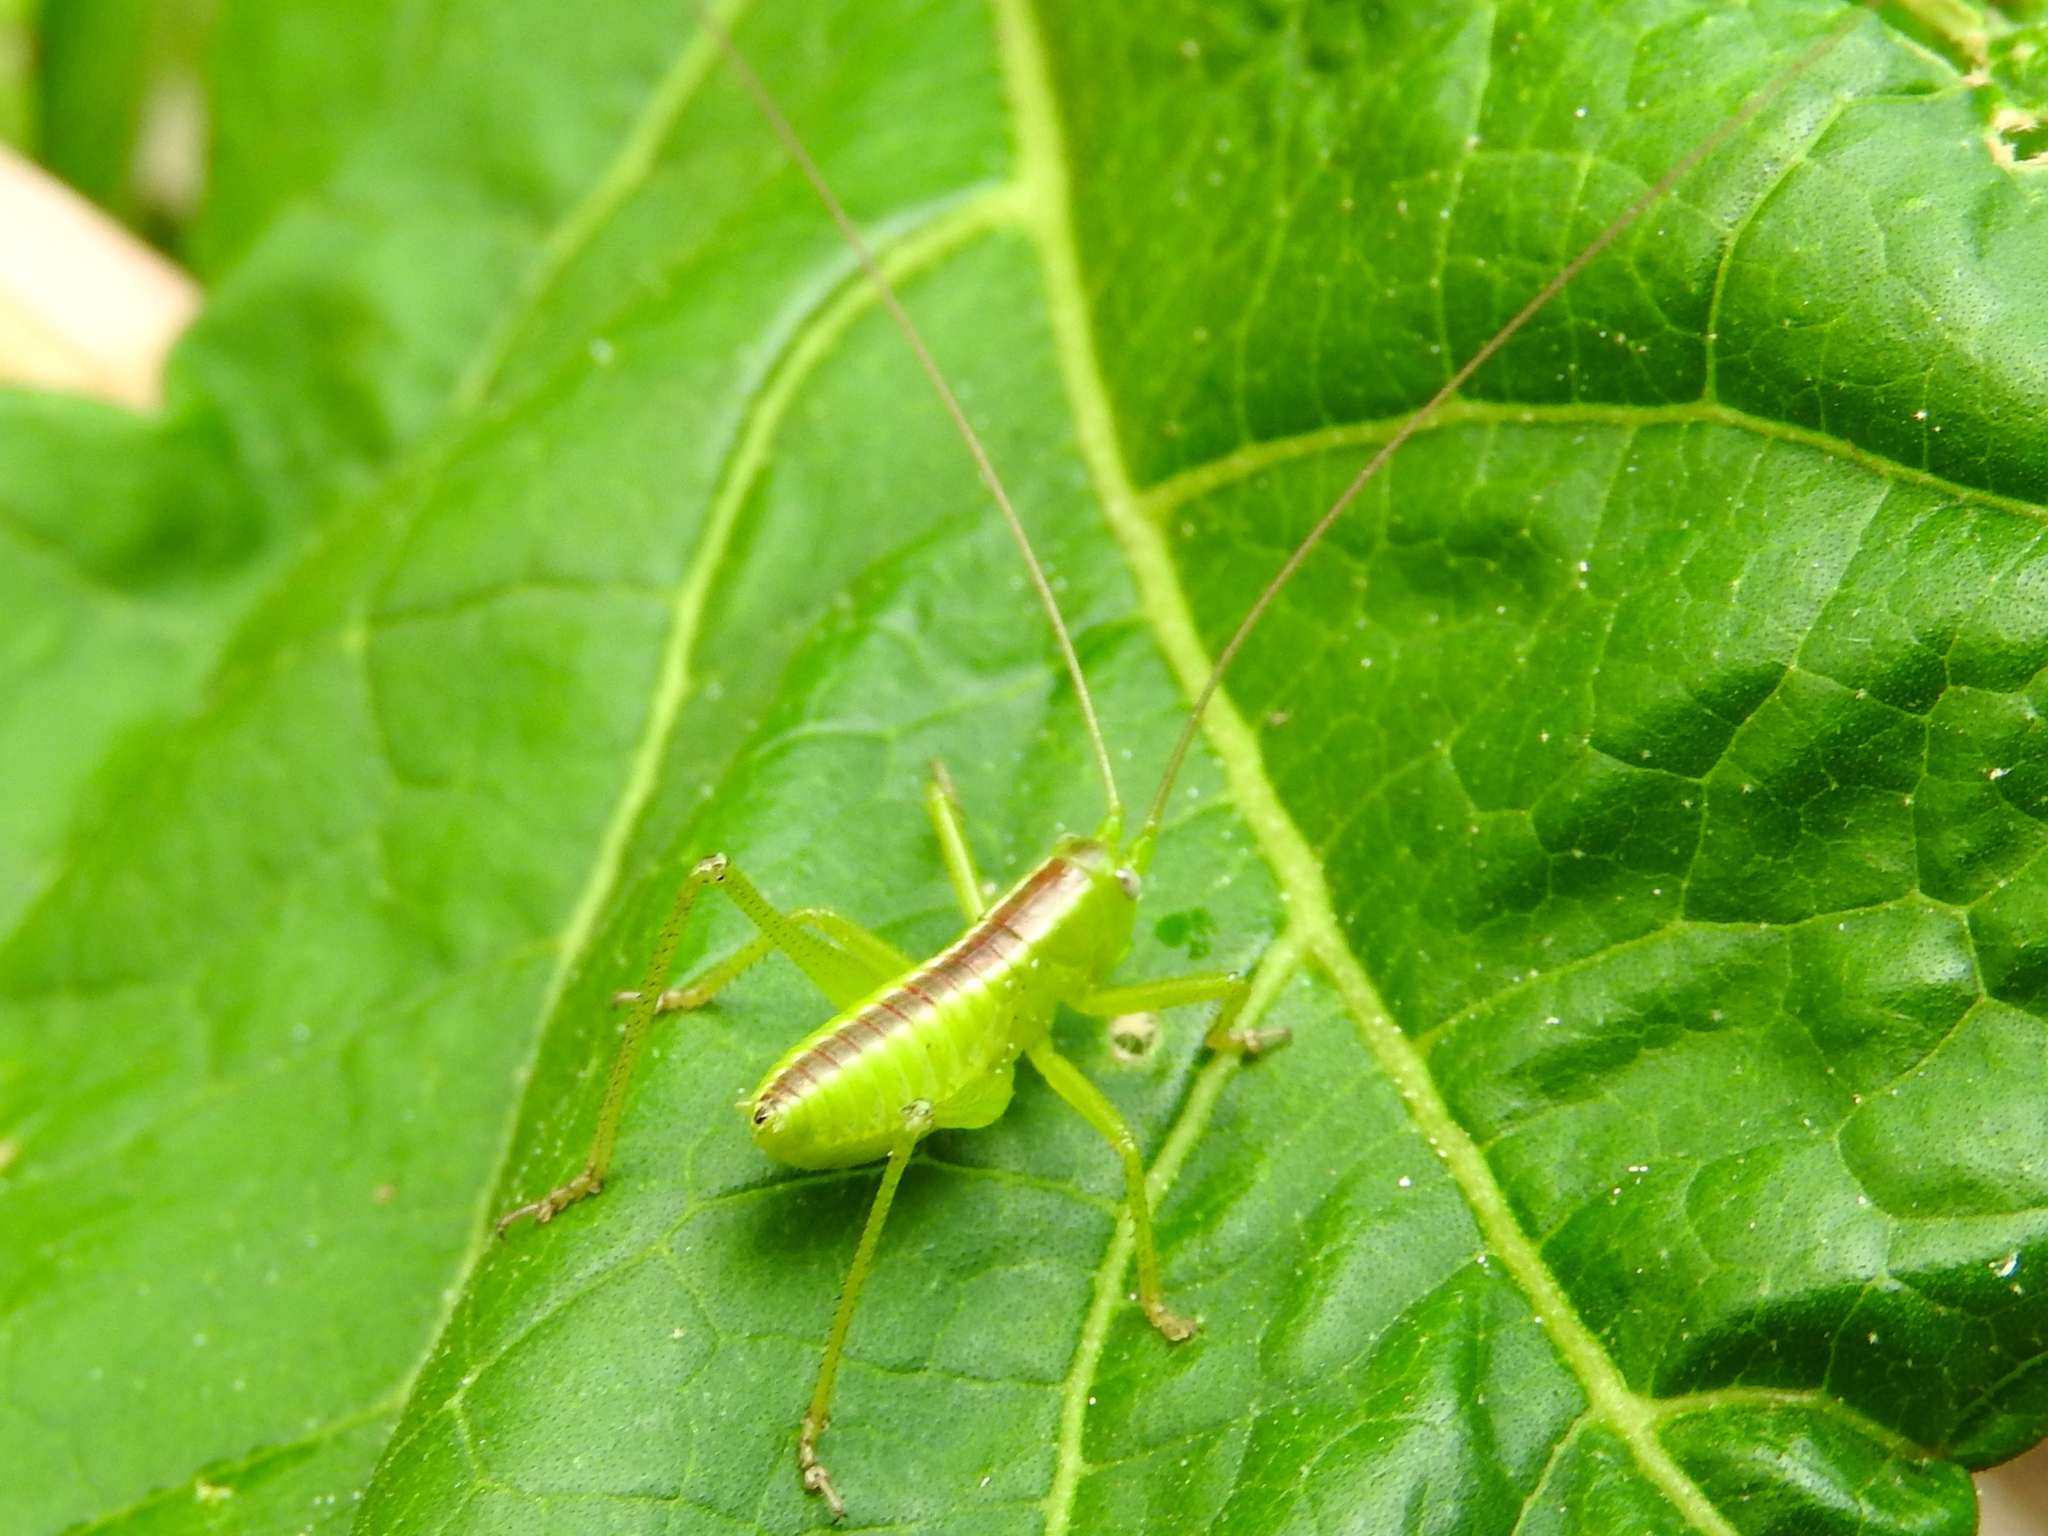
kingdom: Animalia
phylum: Arthropoda
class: Insecta
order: Orthoptera
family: Tettigoniidae
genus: Neobarrettia
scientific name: Neobarrettia sinaloae
